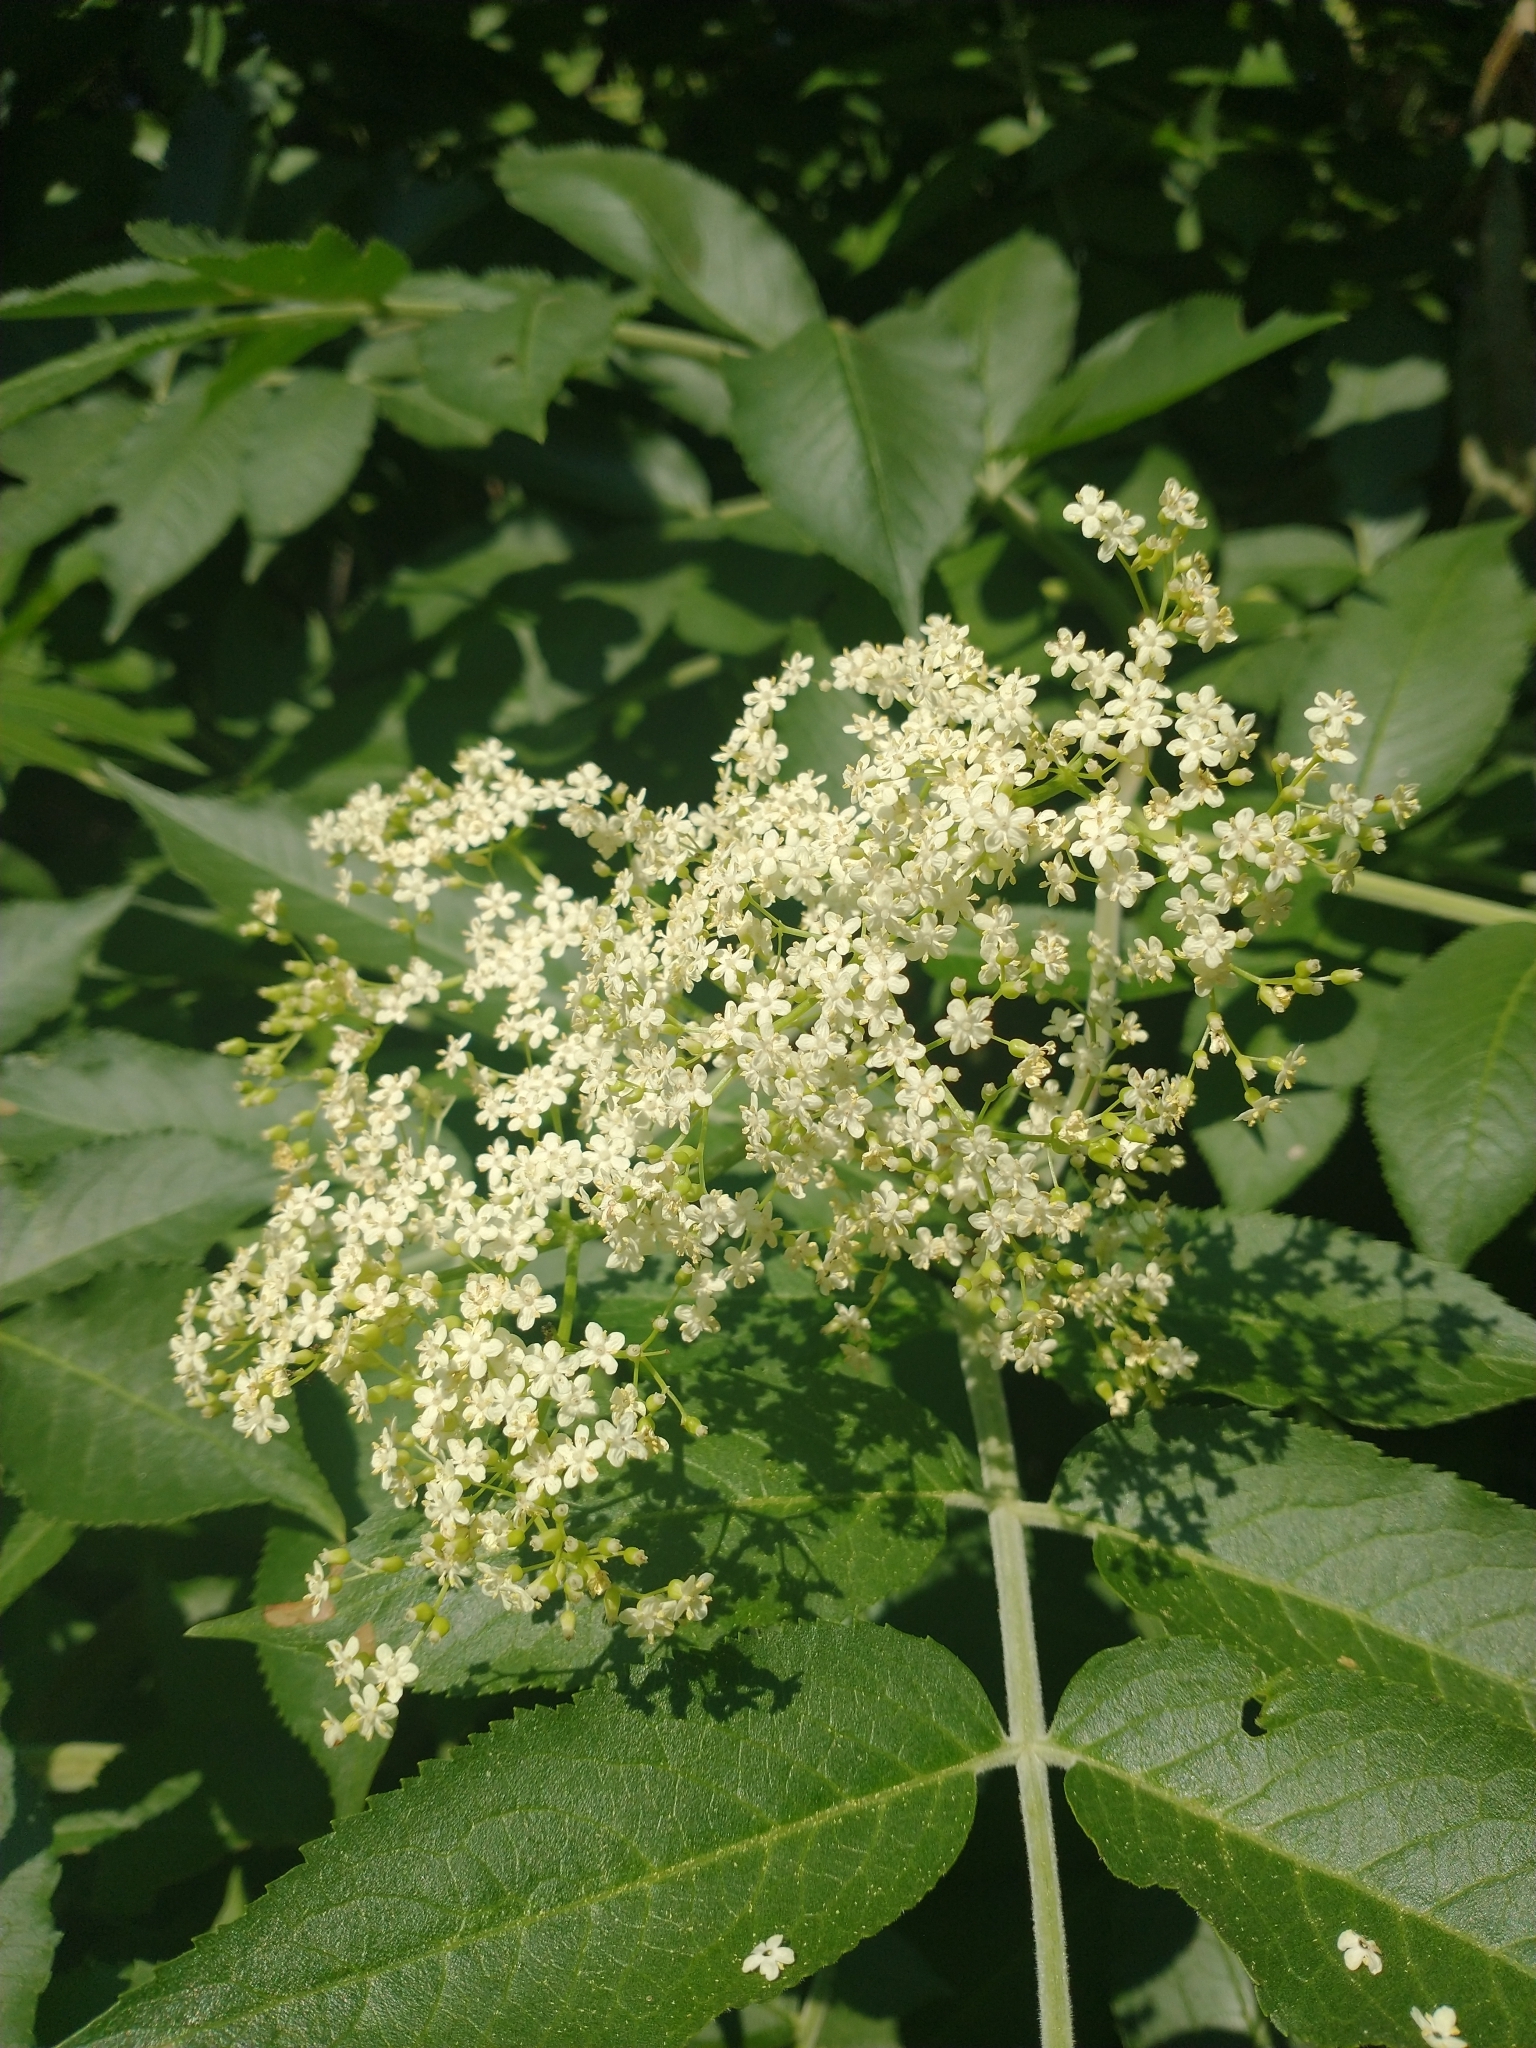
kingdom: Plantae
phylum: Tracheophyta
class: Magnoliopsida
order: Dipsacales
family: Viburnaceae
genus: Sambucus
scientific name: Sambucus cerulea
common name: Blue elder
